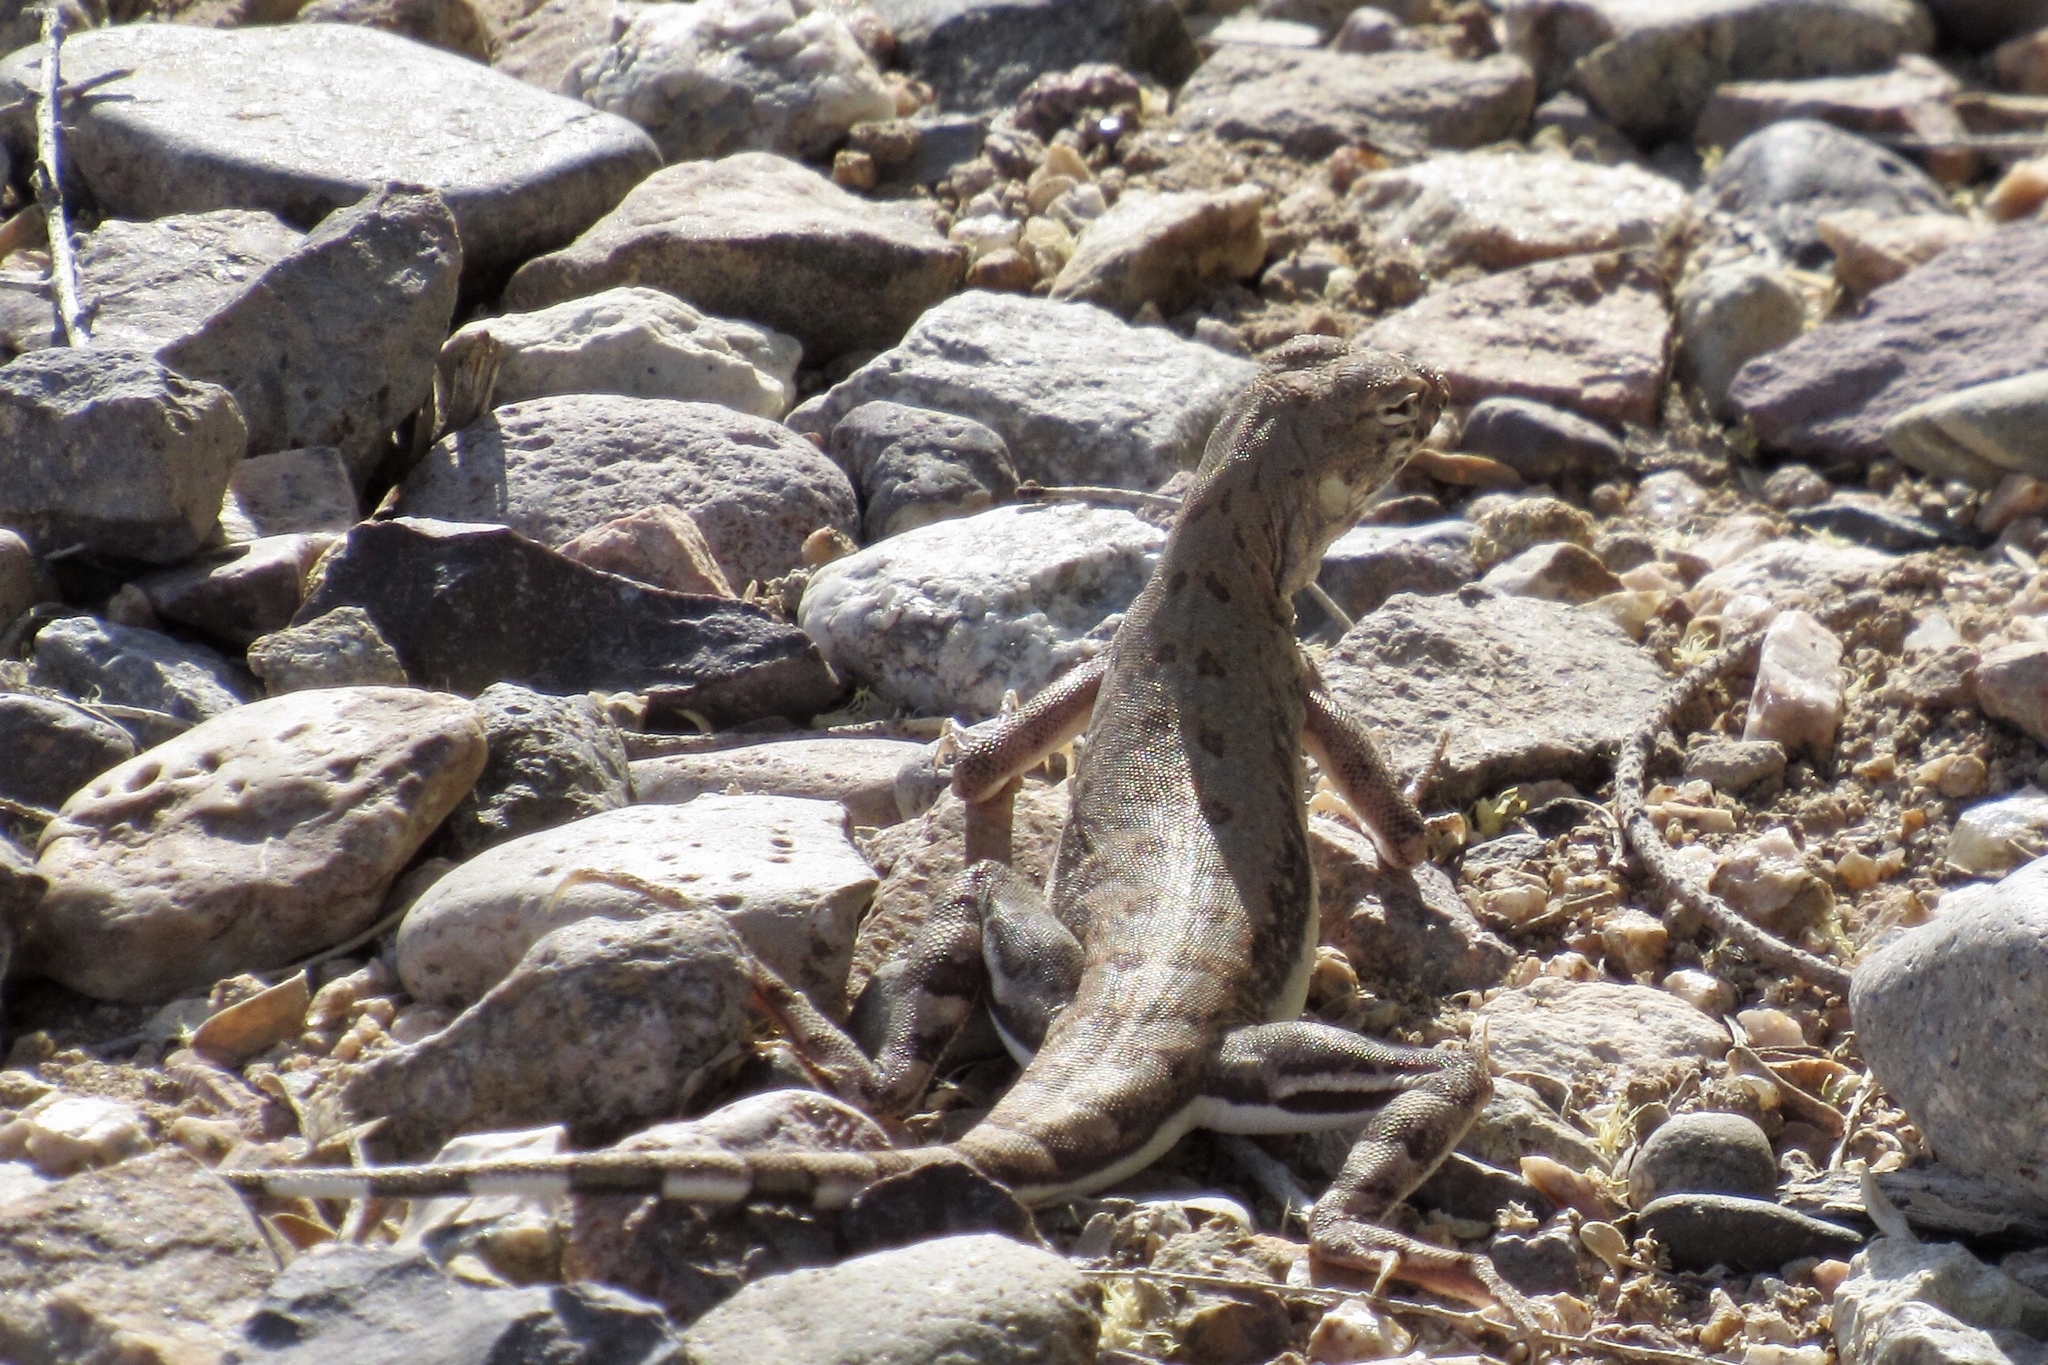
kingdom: Animalia
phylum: Chordata
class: Squamata
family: Phrynosomatidae
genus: Callisaurus
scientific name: Callisaurus draconoides
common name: Zebra-tailed lizard
